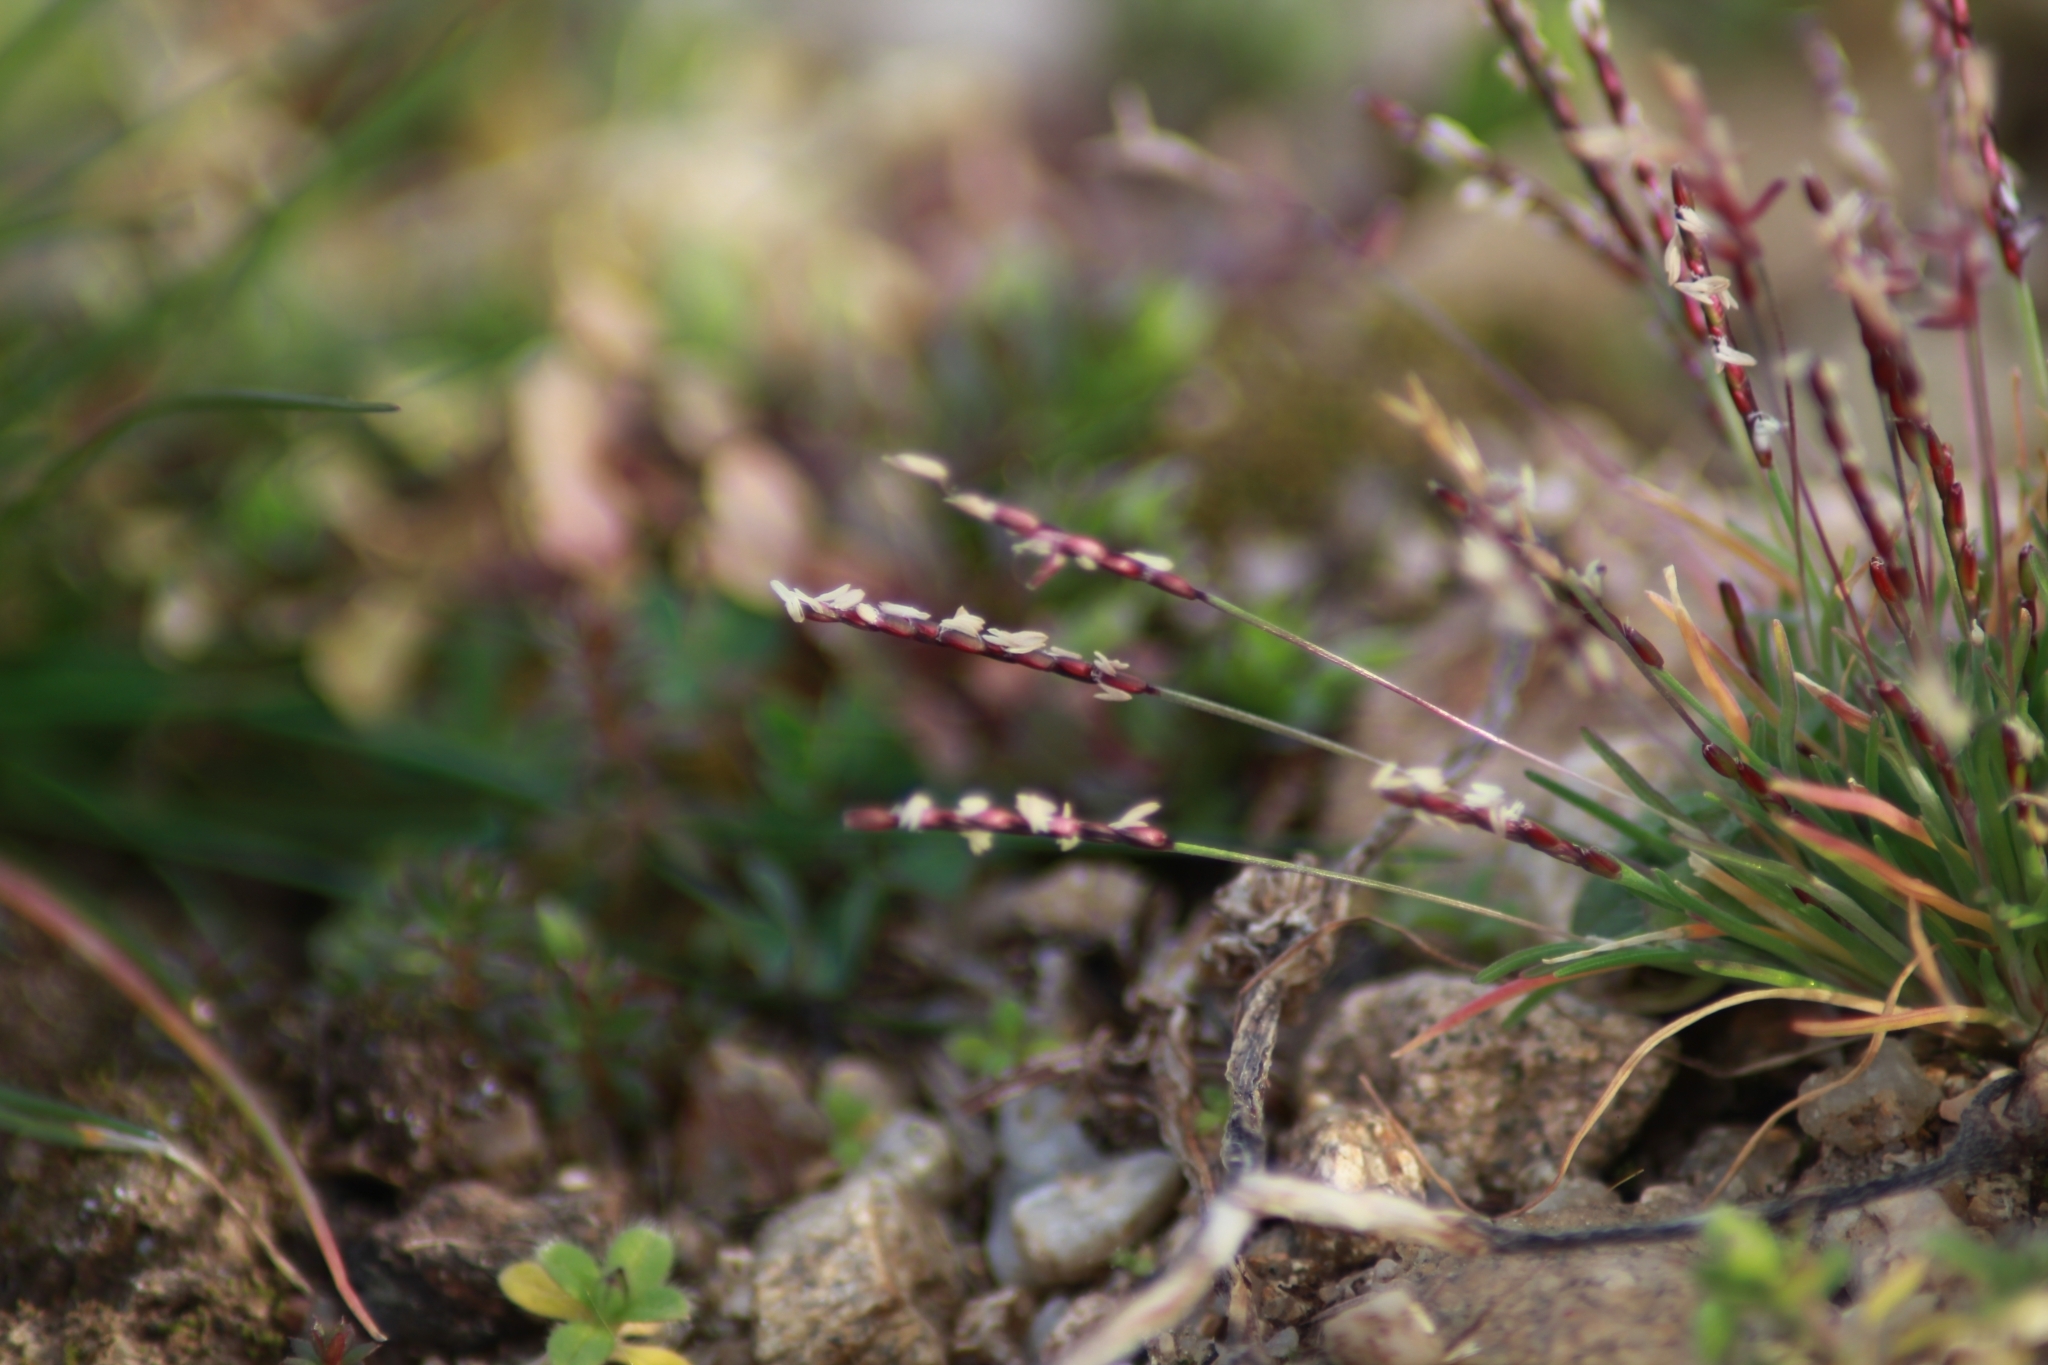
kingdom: Plantae
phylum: Tracheophyta
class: Liliopsida
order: Poales
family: Poaceae
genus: Mibora
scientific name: Mibora minima
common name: Early sand-grass
